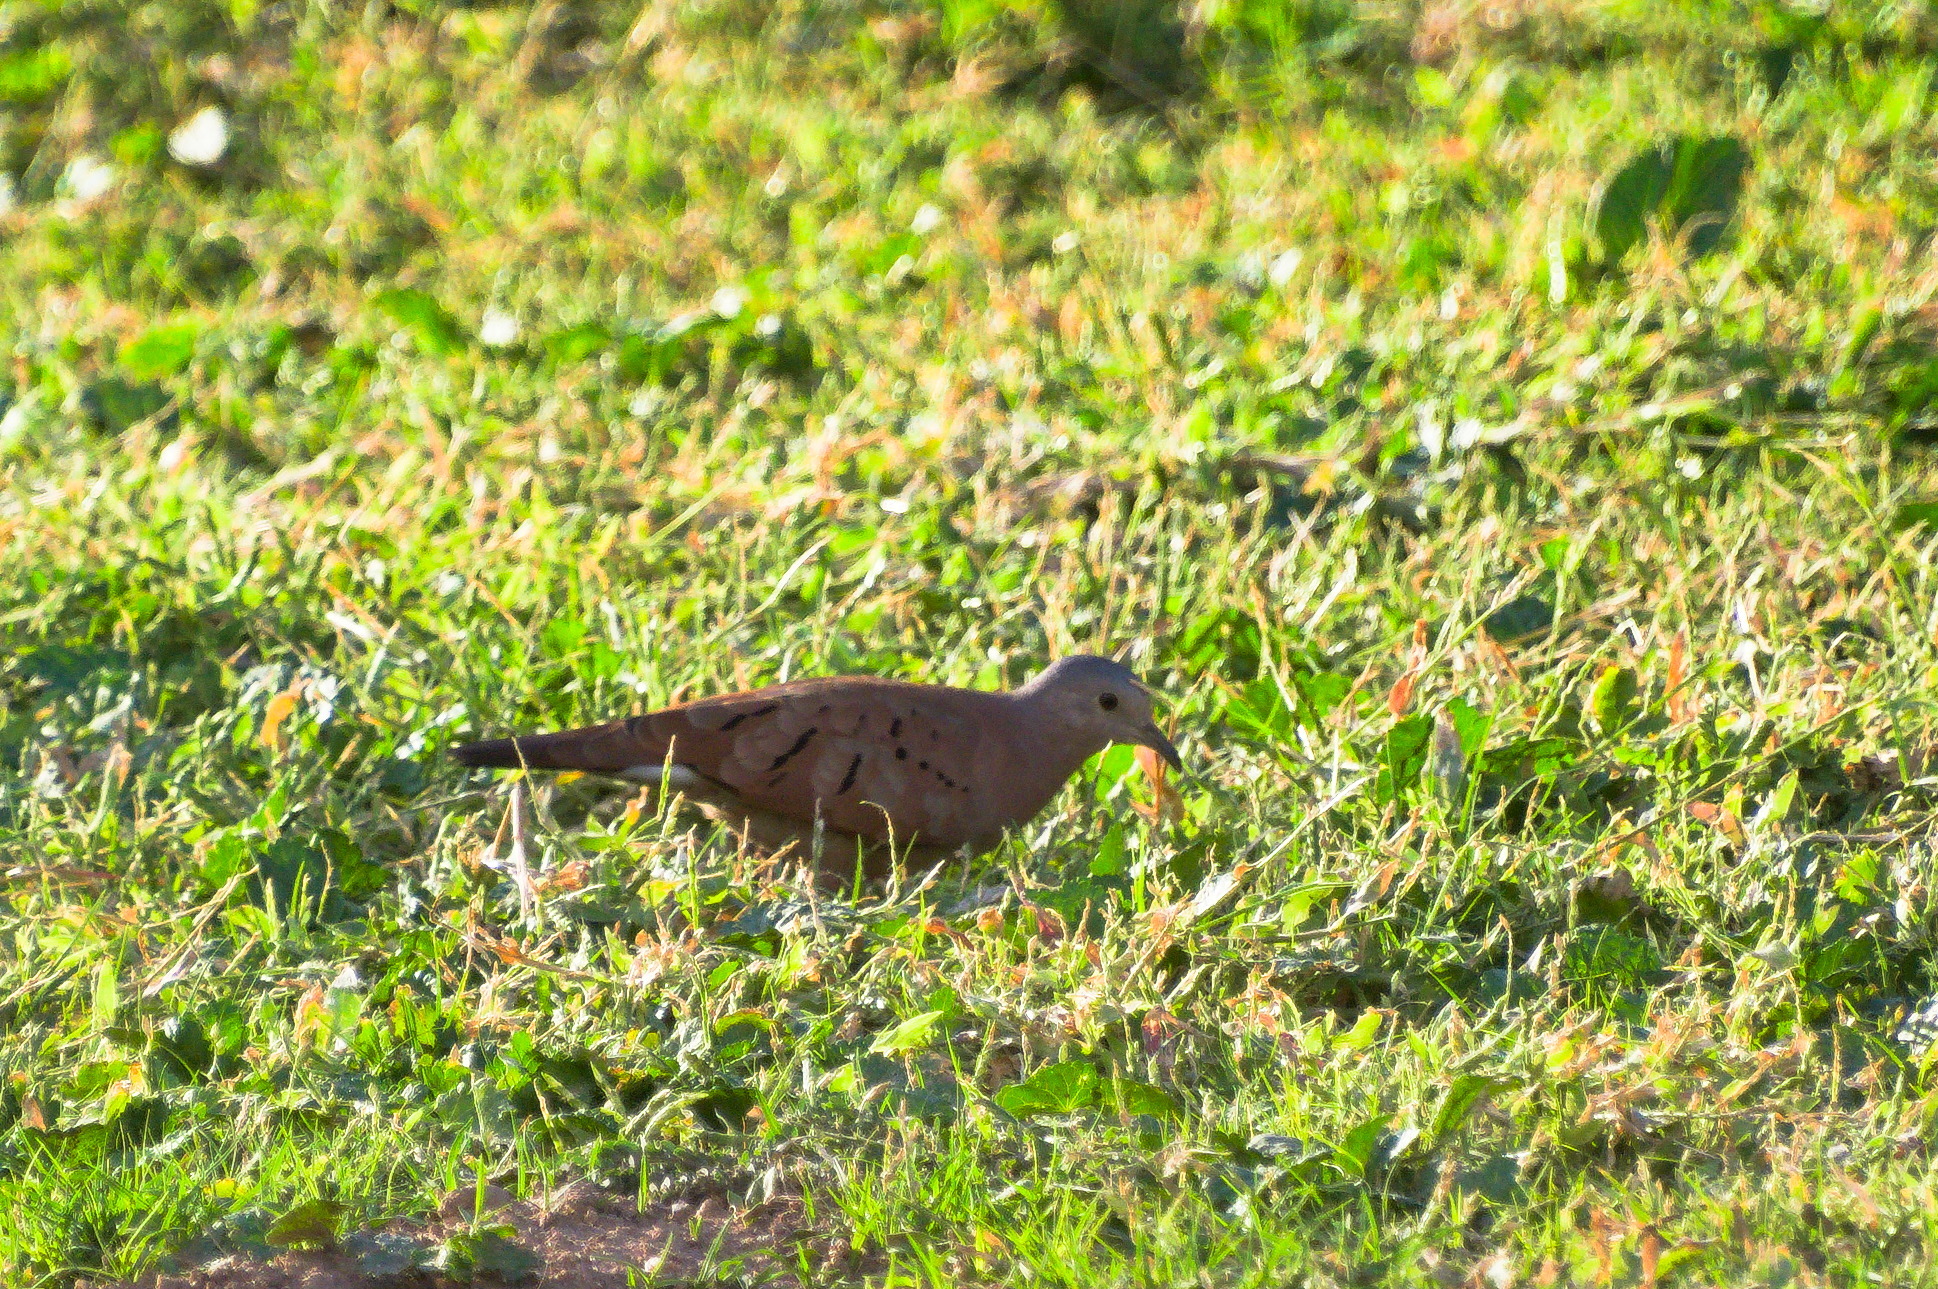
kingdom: Animalia
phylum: Chordata
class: Aves
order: Columbiformes
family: Columbidae
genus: Columbina
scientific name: Columbina talpacoti
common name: Ruddy ground dove
